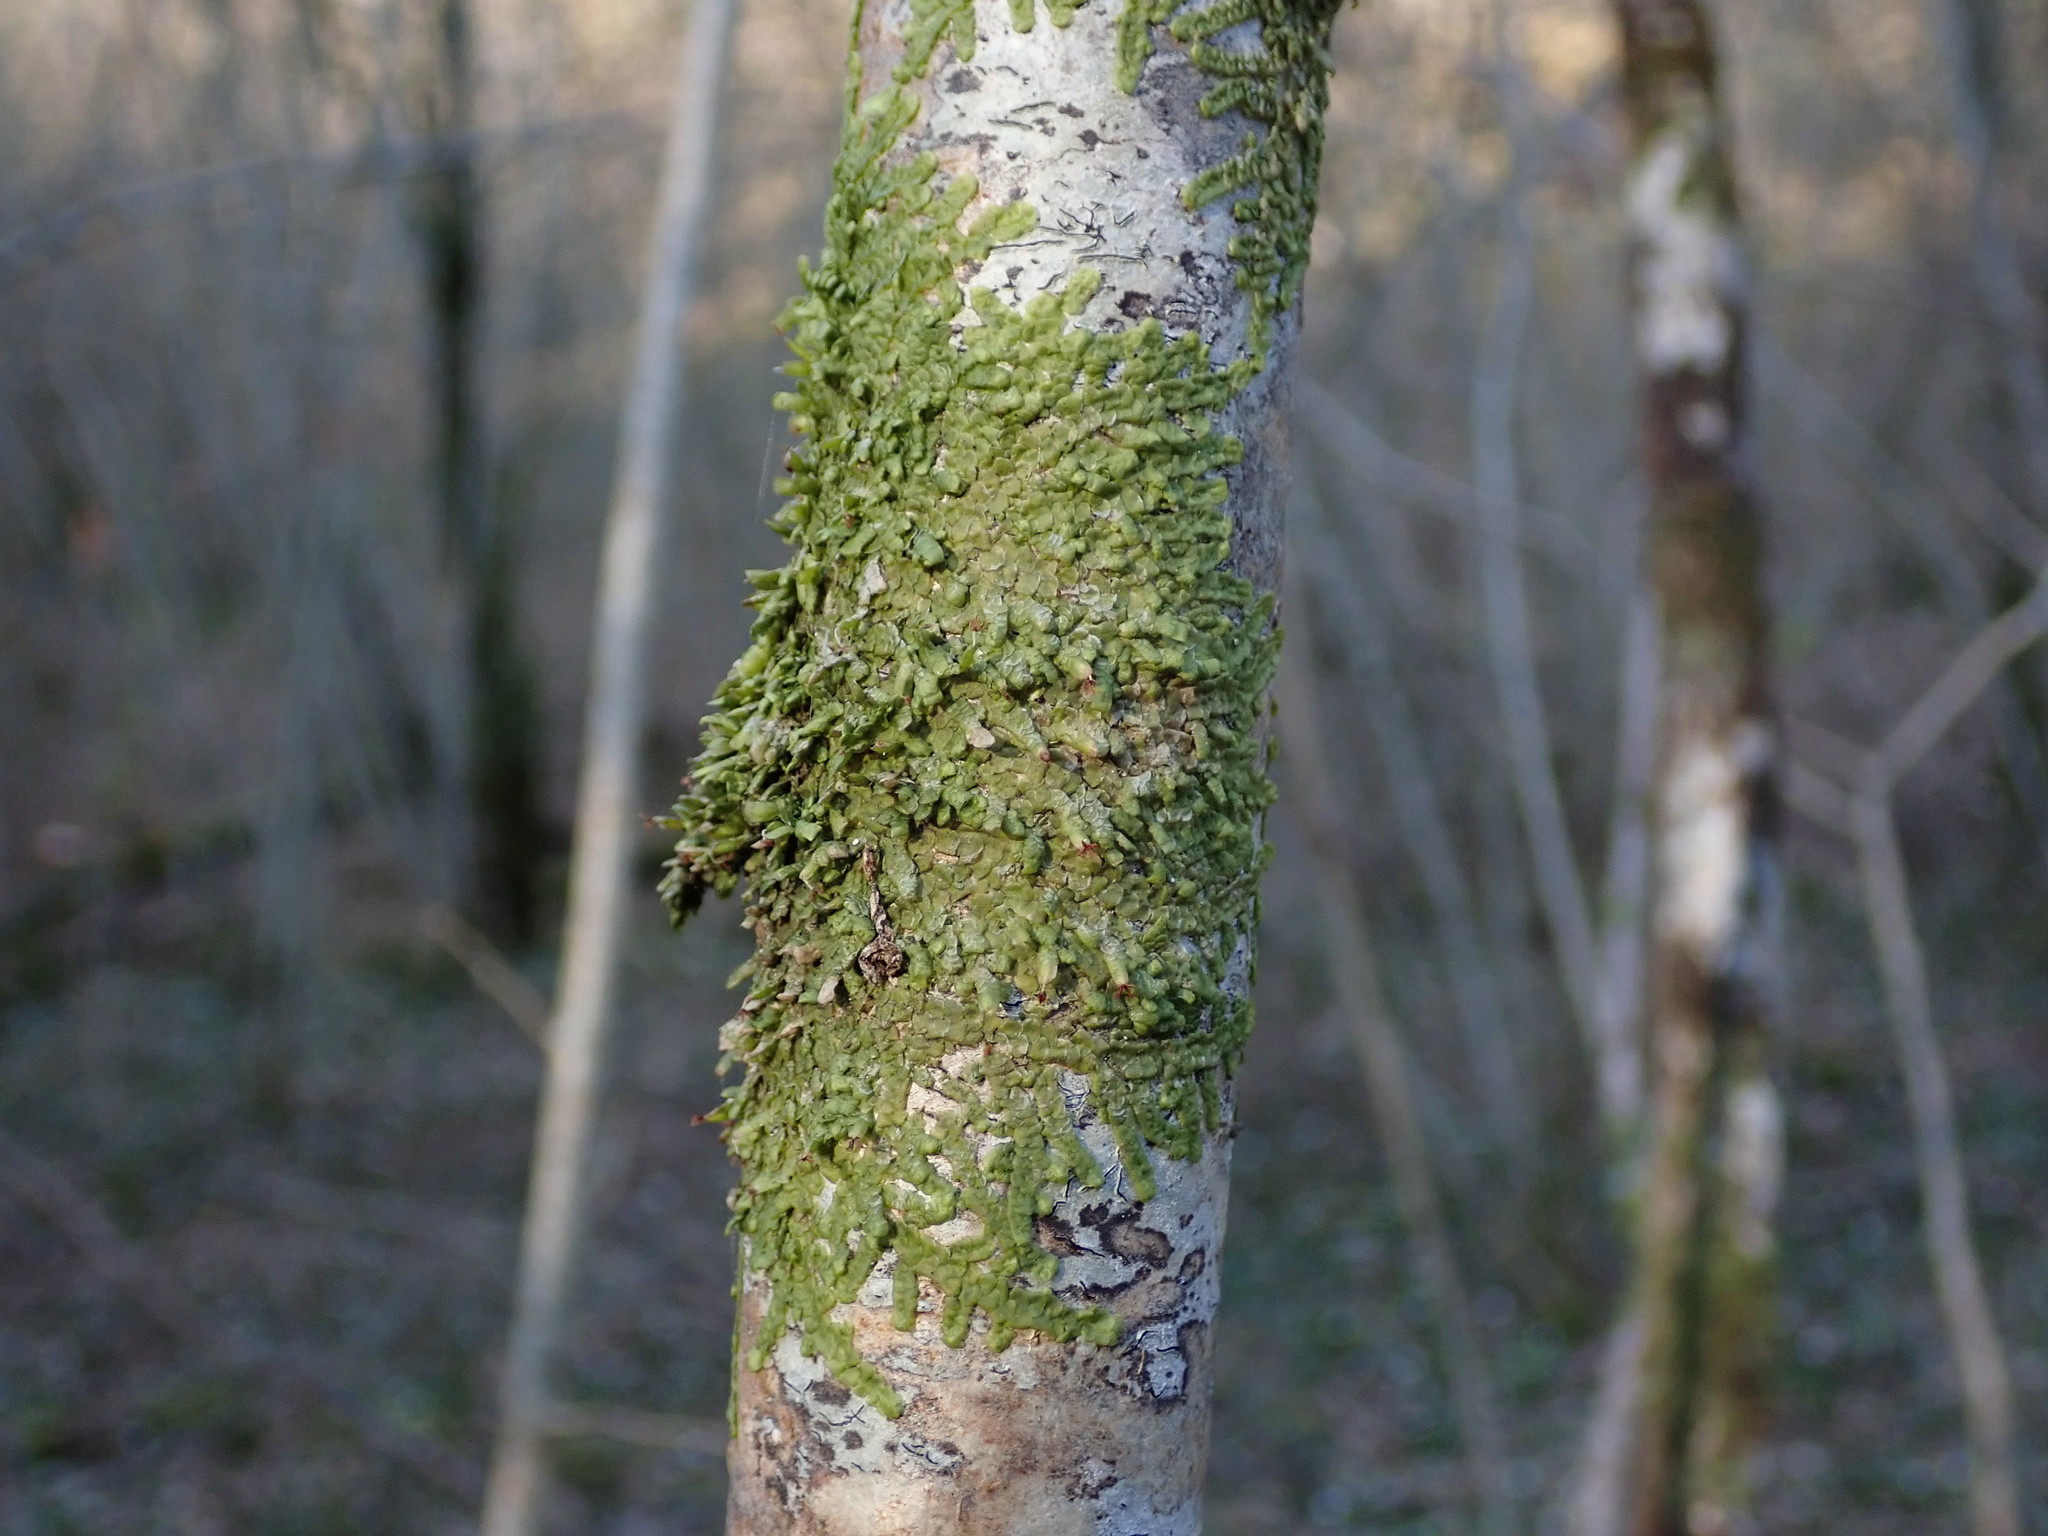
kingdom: Plantae
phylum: Marchantiophyta
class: Jungermanniopsida
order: Porellales
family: Radulaceae
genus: Radula
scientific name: Radula complanata
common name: Flat-leaved scalewort
